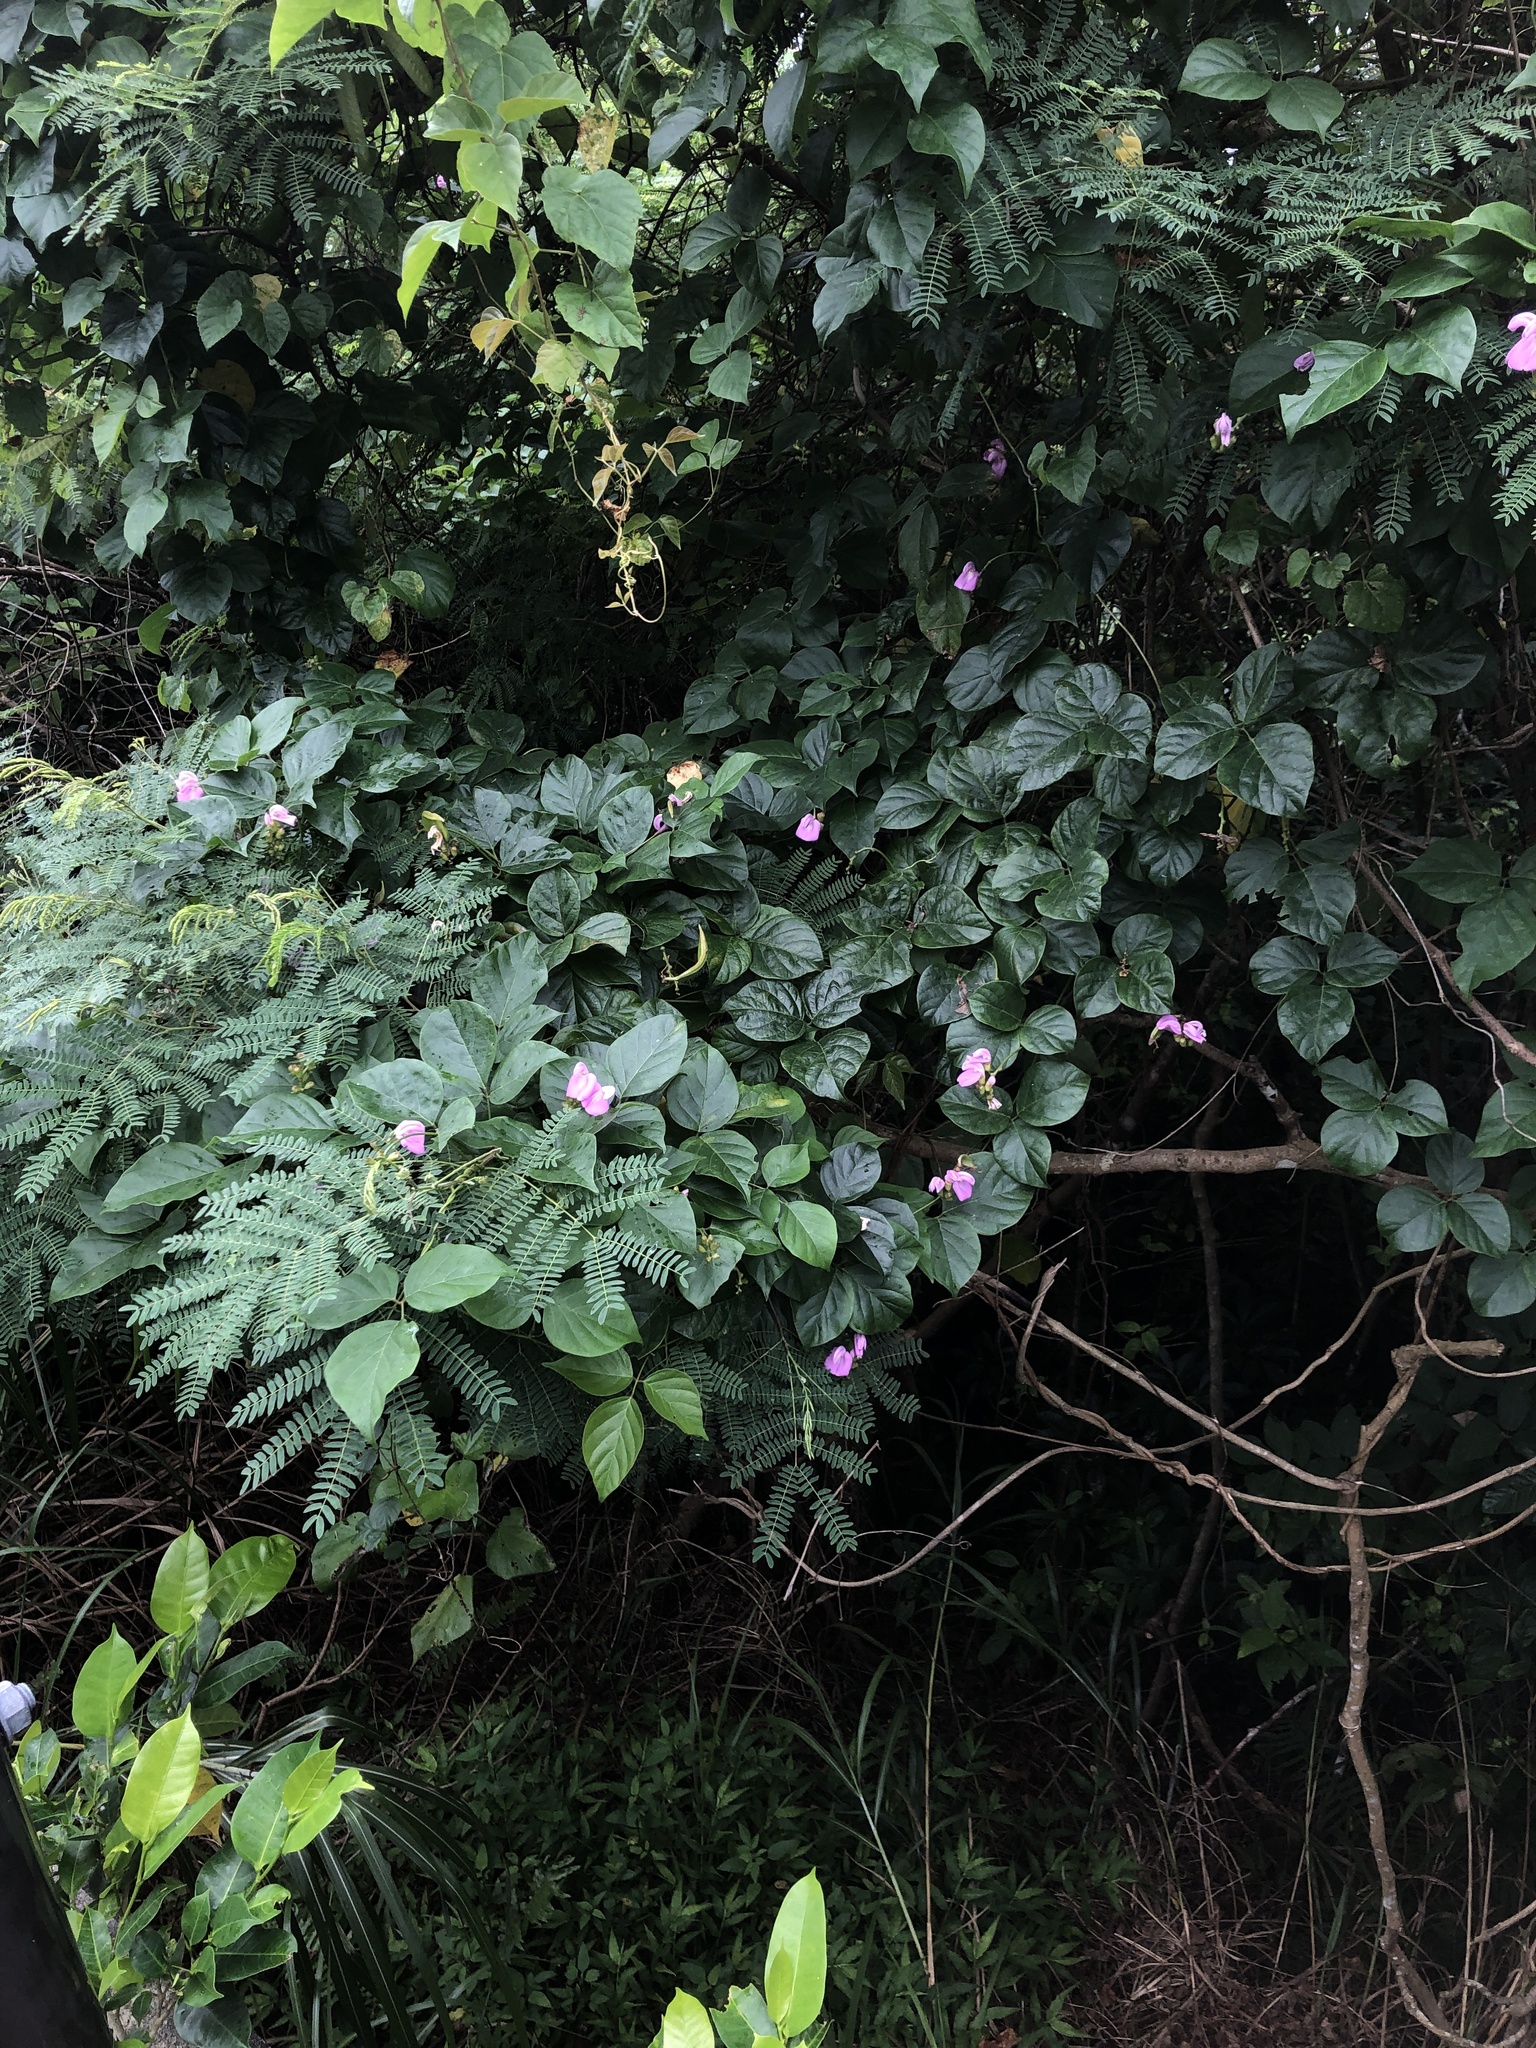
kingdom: Plantae
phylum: Tracheophyta
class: Magnoliopsida
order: Fabales
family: Fabaceae
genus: Canavalia
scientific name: Canavalia cathartica
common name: Maunaloa
